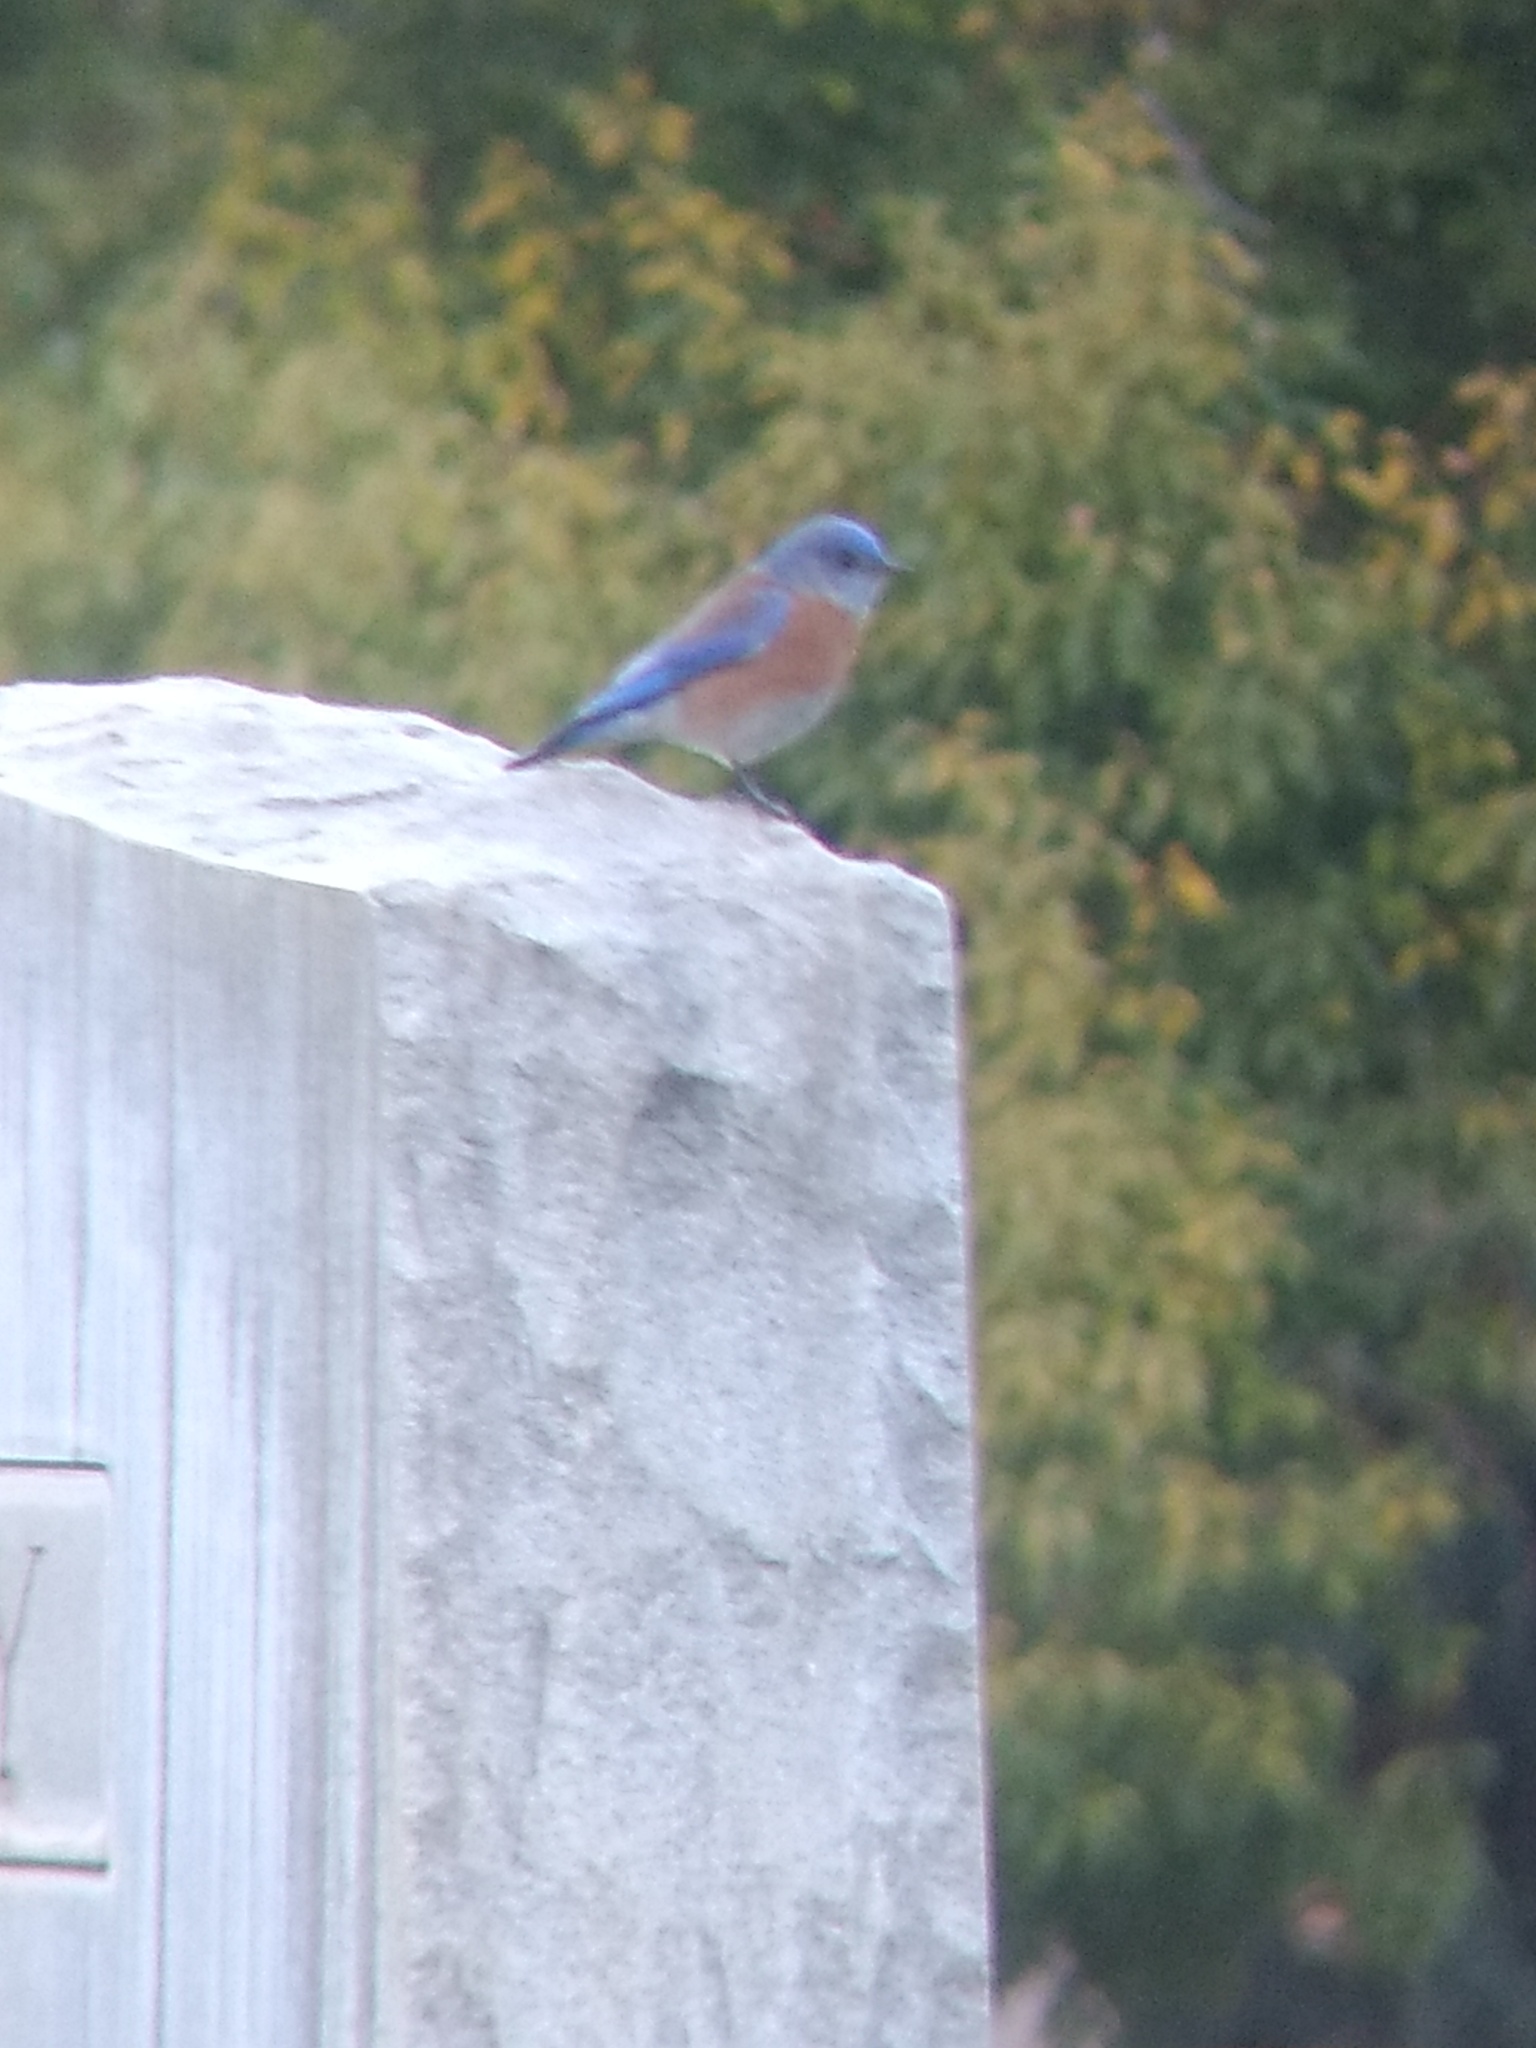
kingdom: Animalia
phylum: Chordata
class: Aves
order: Passeriformes
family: Turdidae
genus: Sialia
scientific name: Sialia mexicana
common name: Western bluebird
